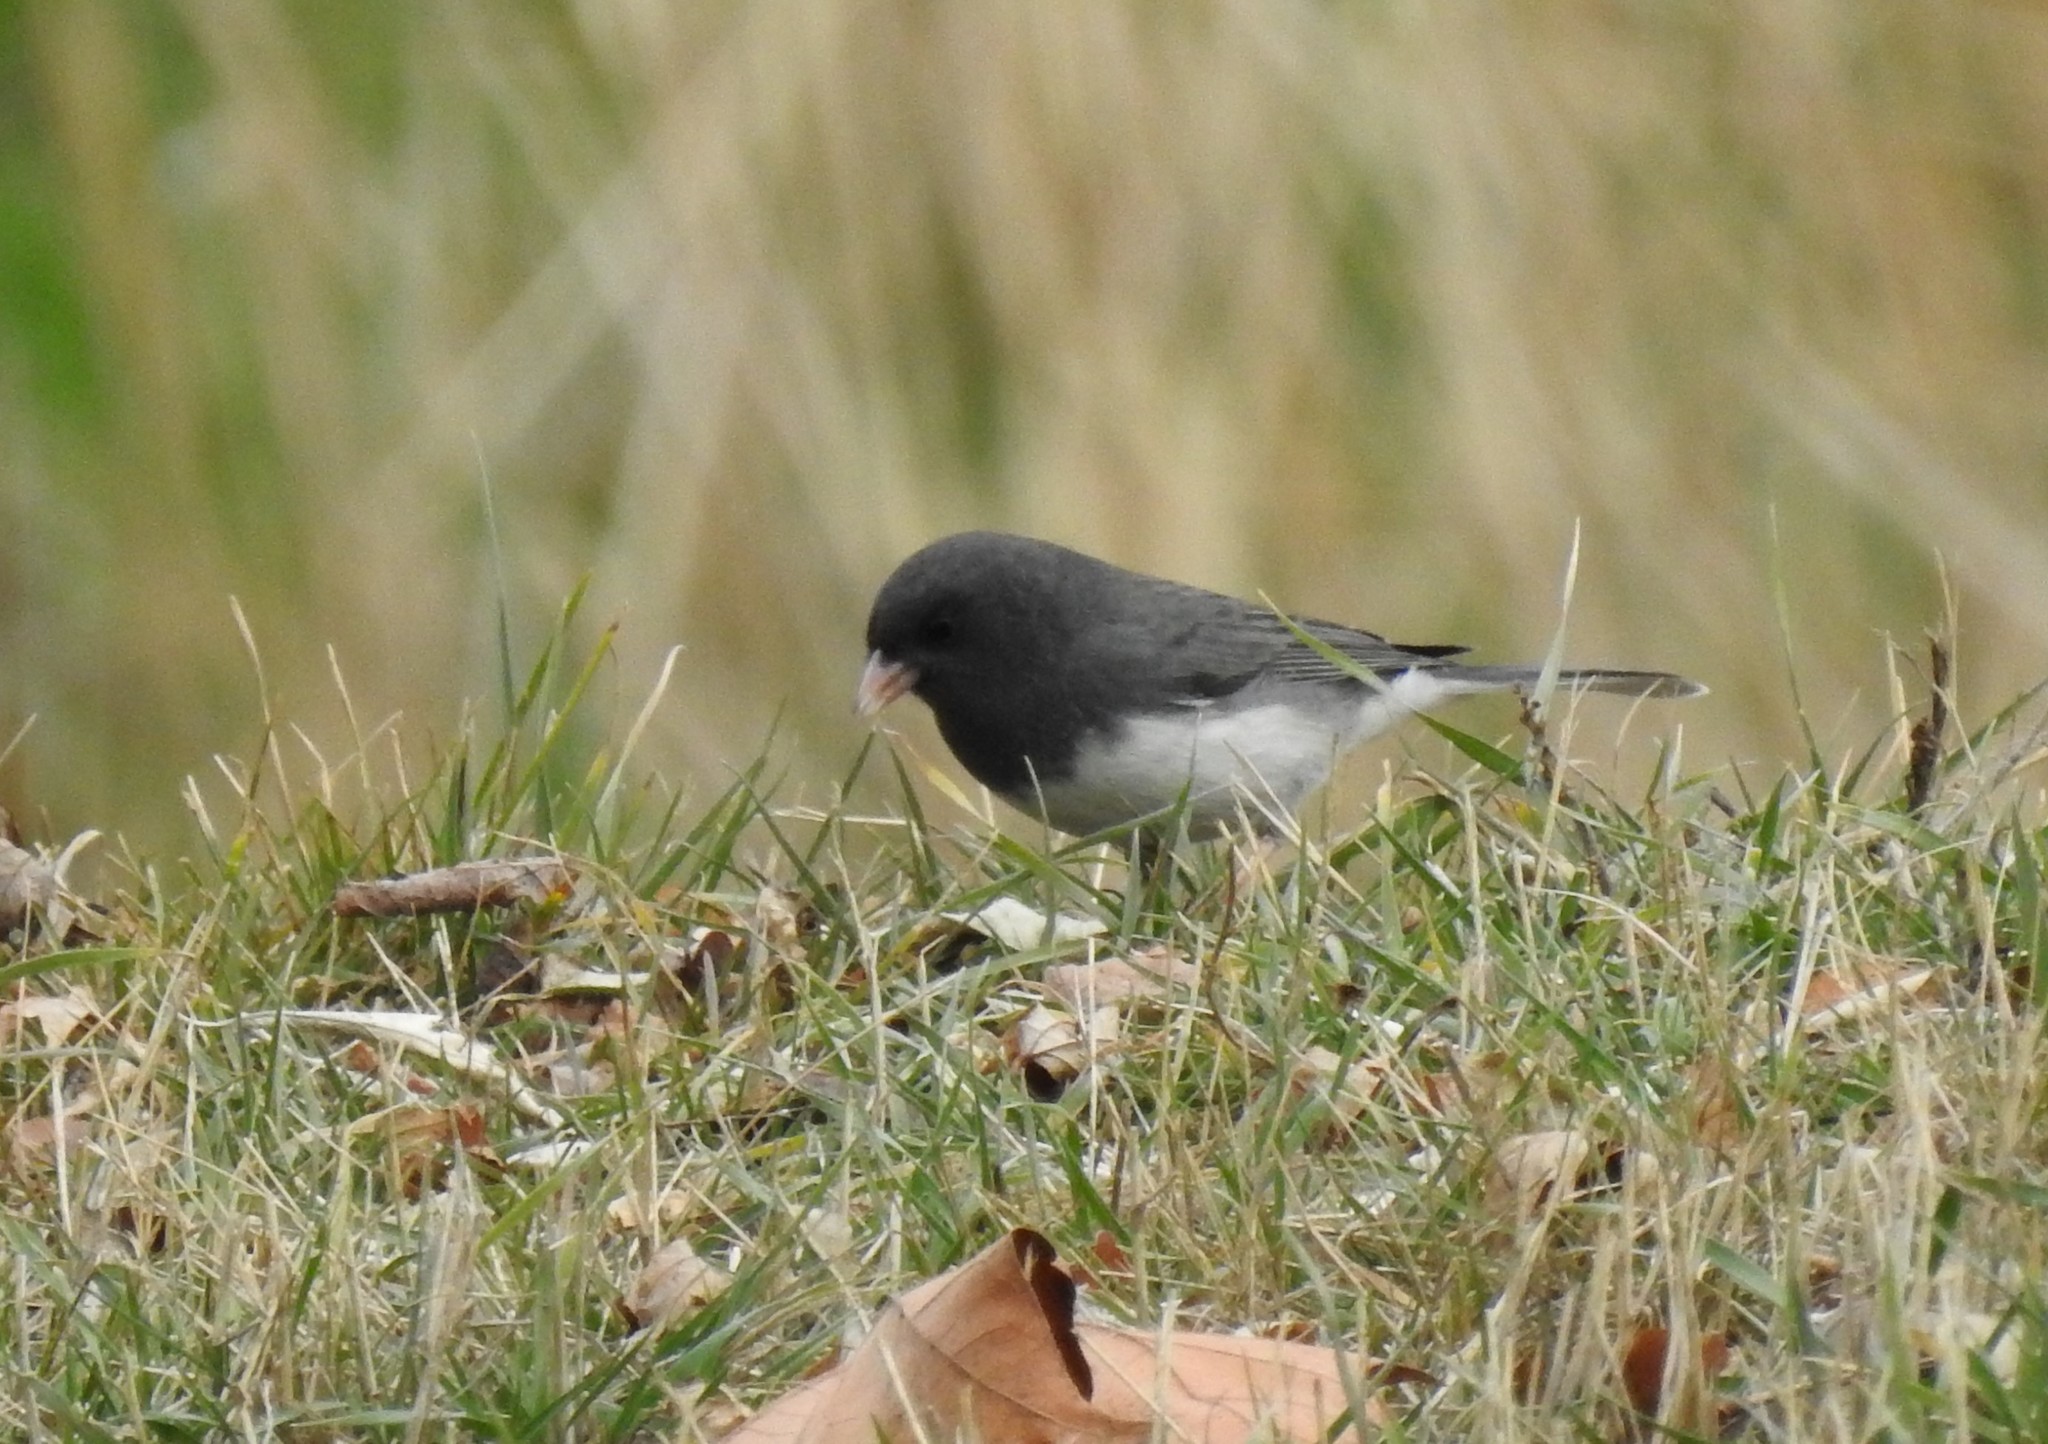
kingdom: Animalia
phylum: Chordata
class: Aves
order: Passeriformes
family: Passerellidae
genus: Junco
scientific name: Junco hyemalis
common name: Dark-eyed junco
